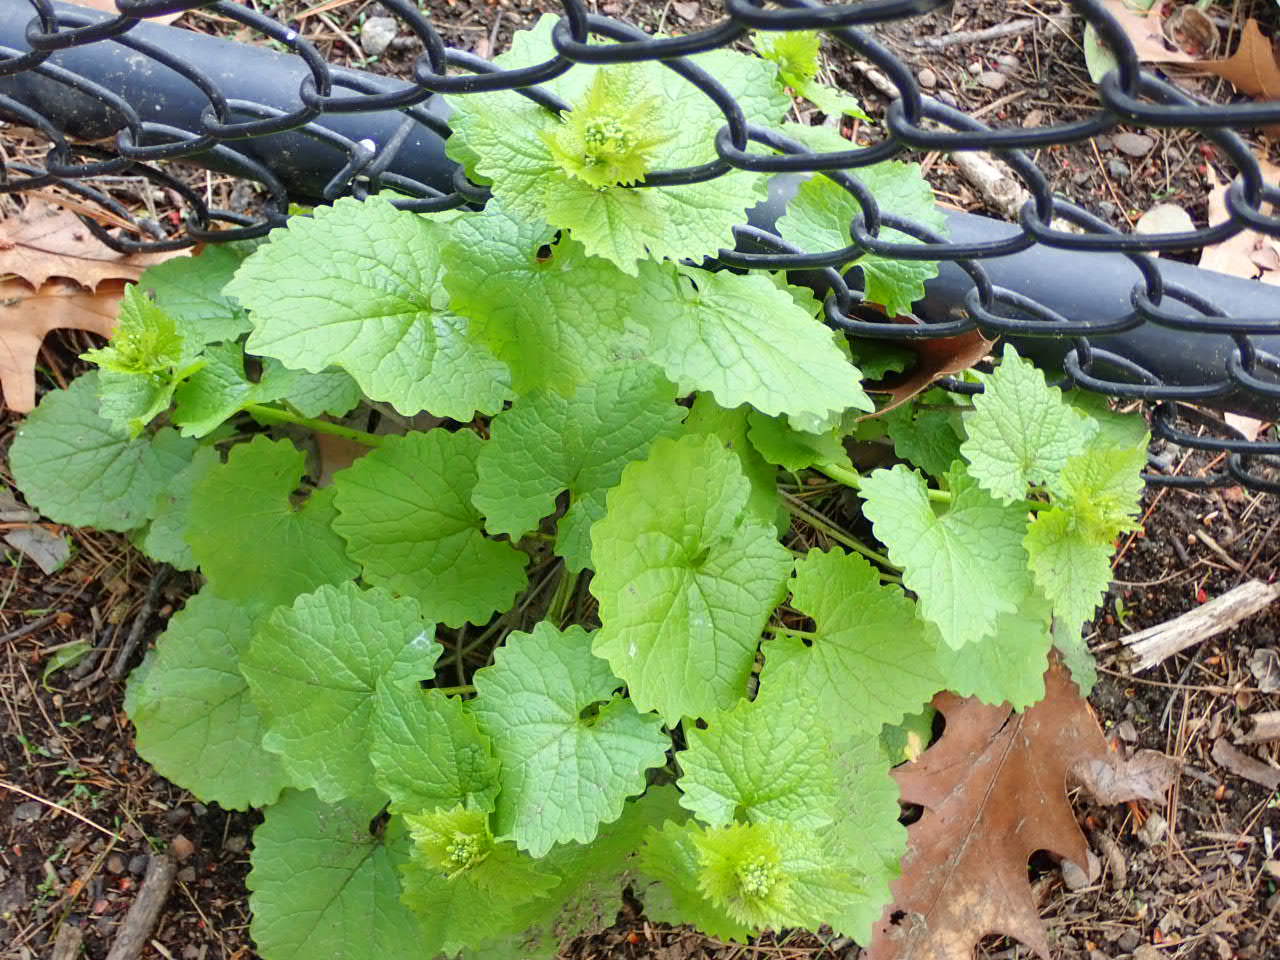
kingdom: Plantae
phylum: Tracheophyta
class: Magnoliopsida
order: Brassicales
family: Brassicaceae
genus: Alliaria
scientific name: Alliaria petiolata
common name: Garlic mustard
